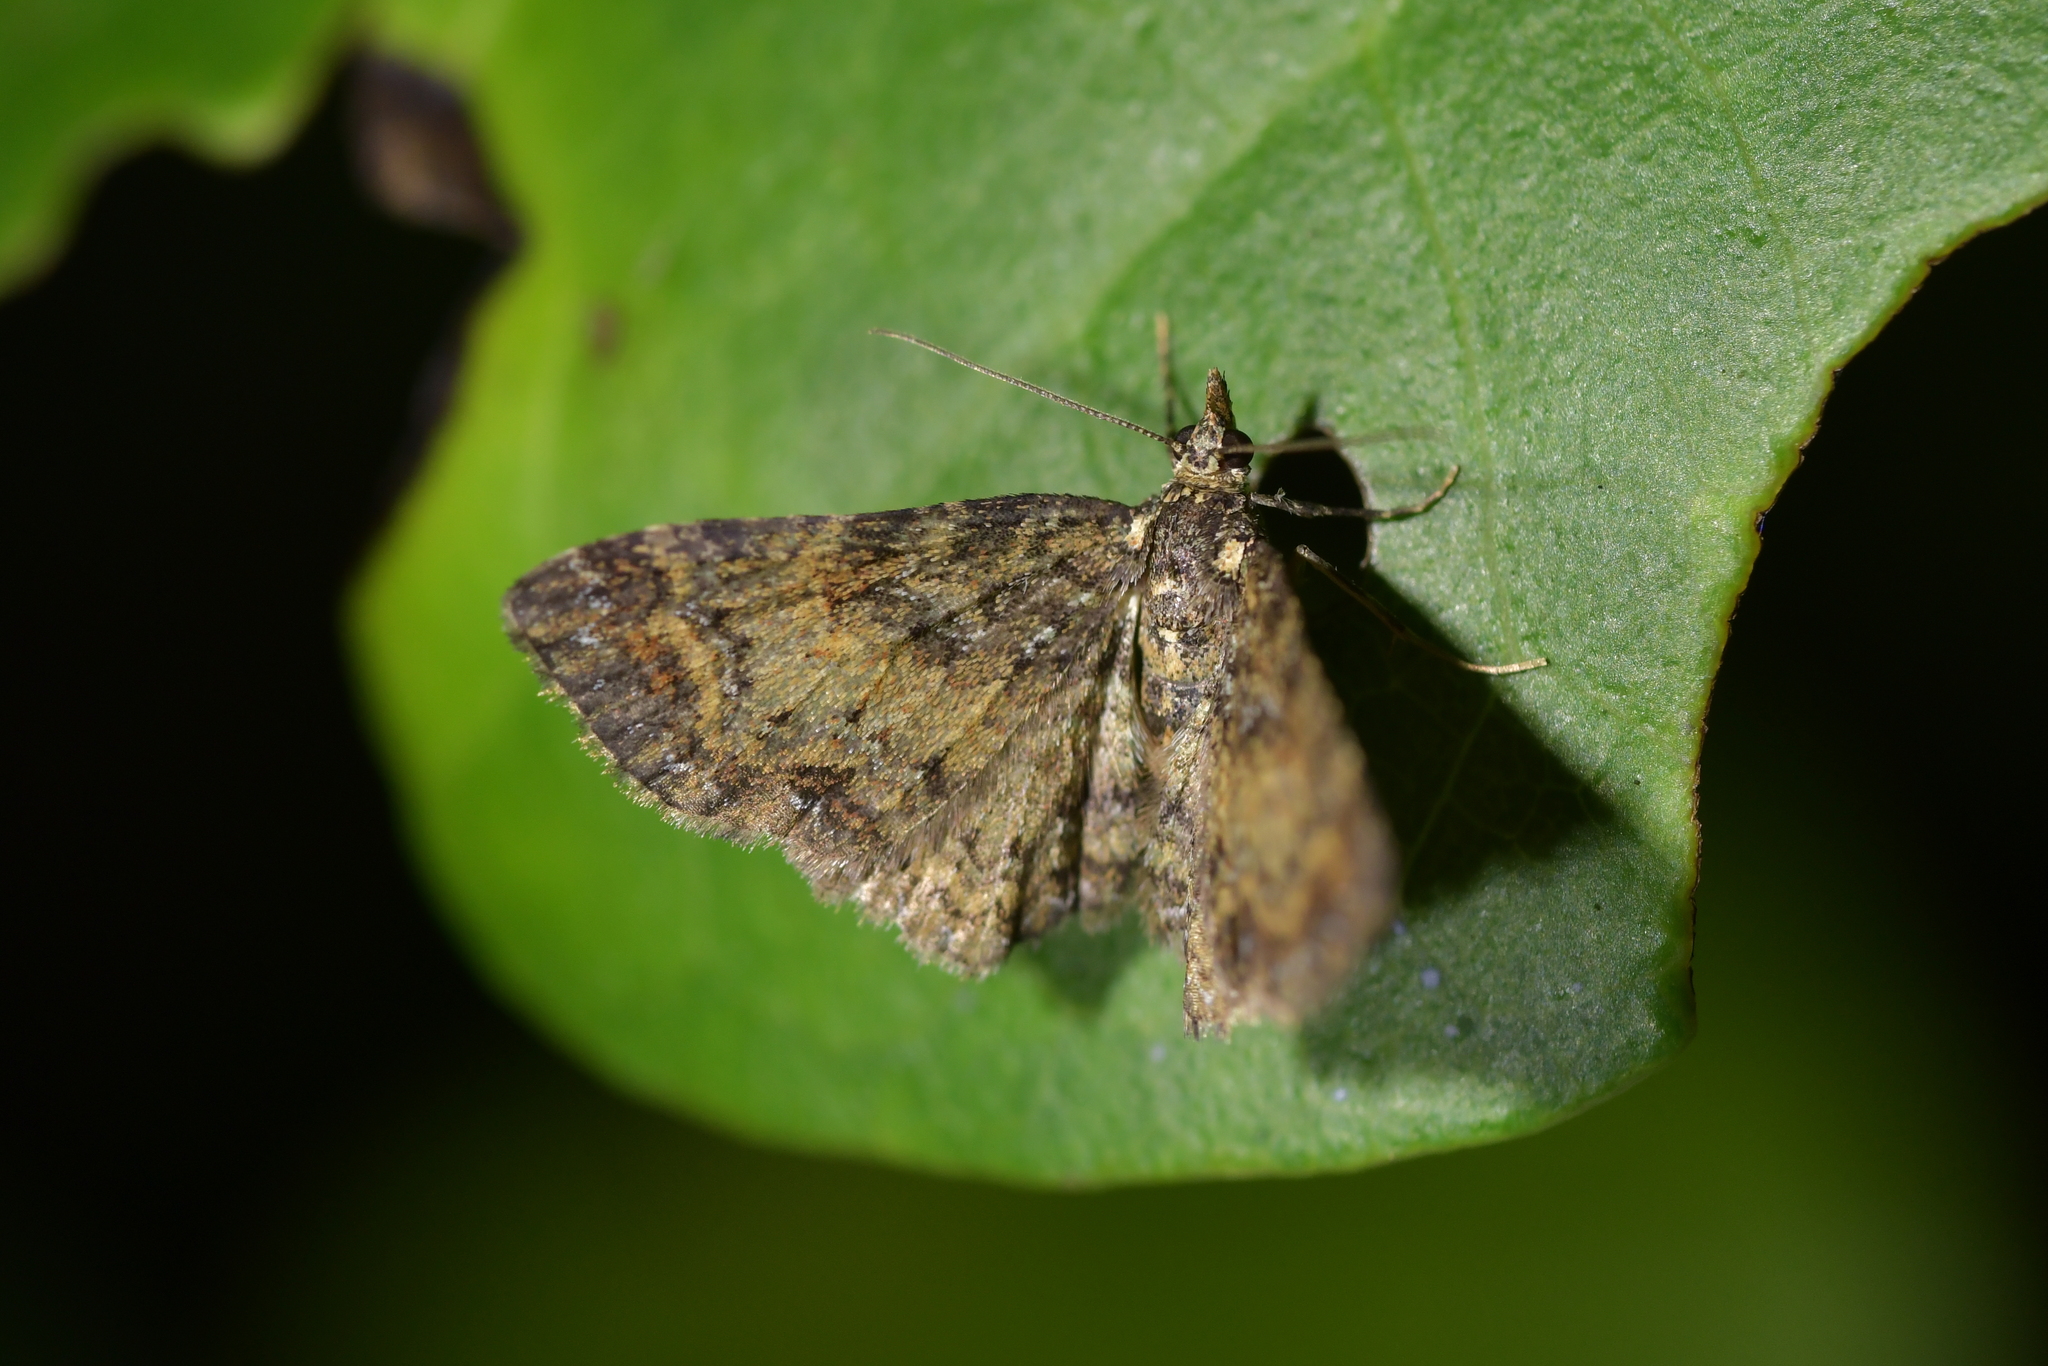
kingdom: Animalia
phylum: Arthropoda
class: Insecta
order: Lepidoptera
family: Geometridae
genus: Pasiphila
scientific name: Pasiphila lunata
